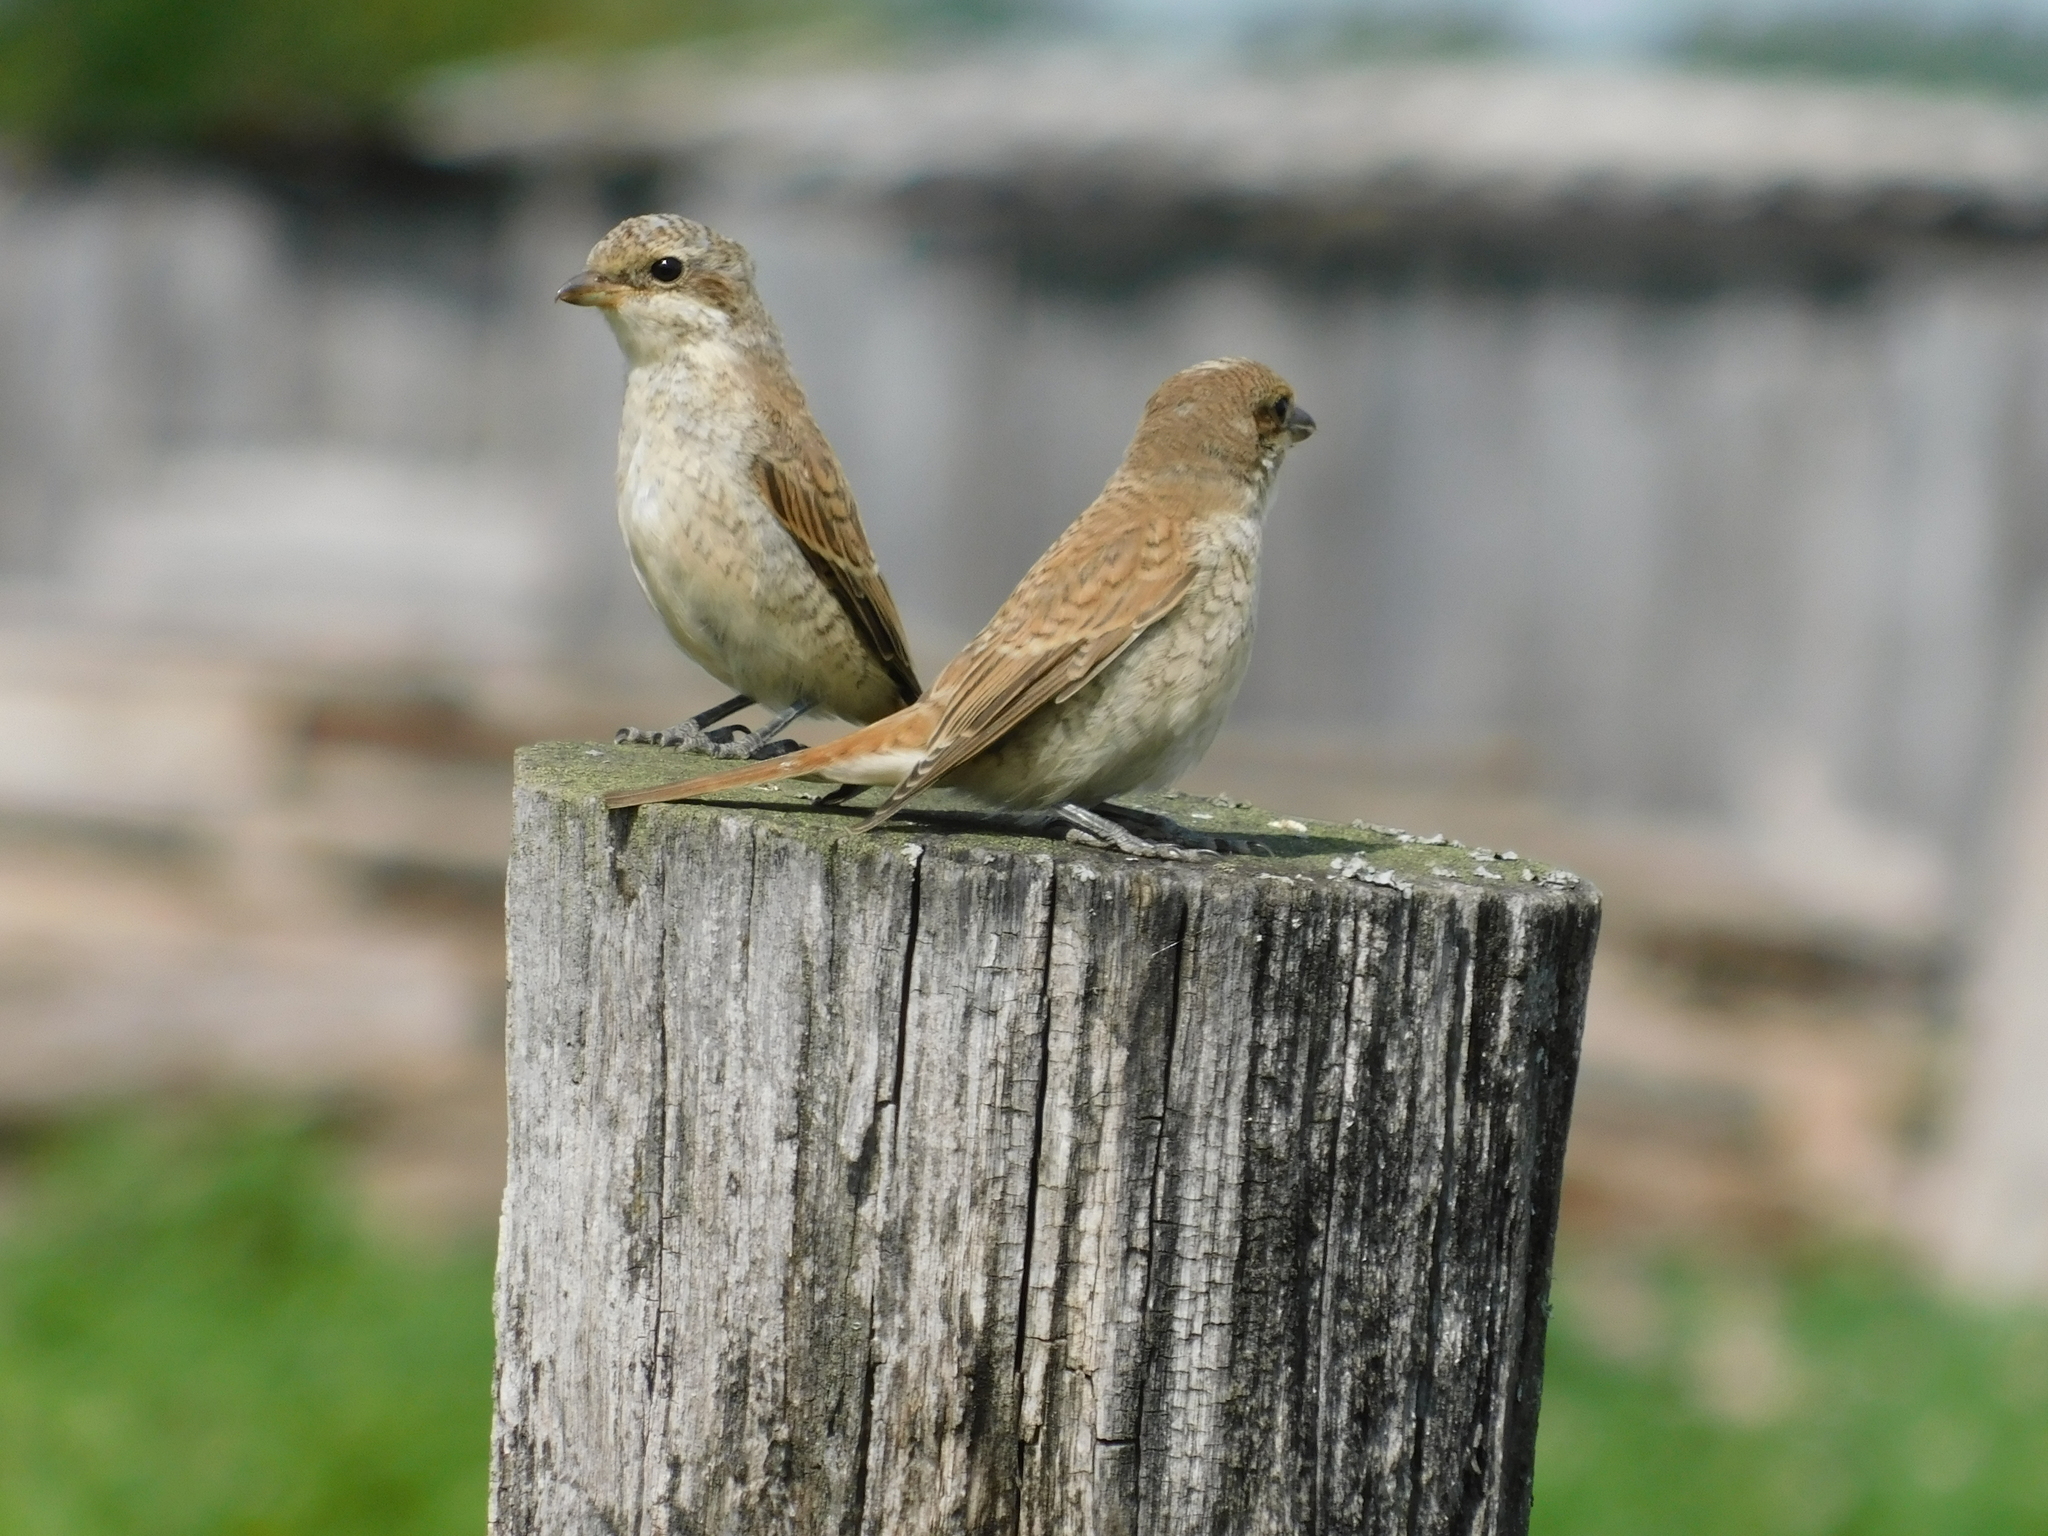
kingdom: Animalia
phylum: Chordata
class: Aves
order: Passeriformes
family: Laniidae
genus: Lanius
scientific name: Lanius collurio
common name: Red-backed shrike
